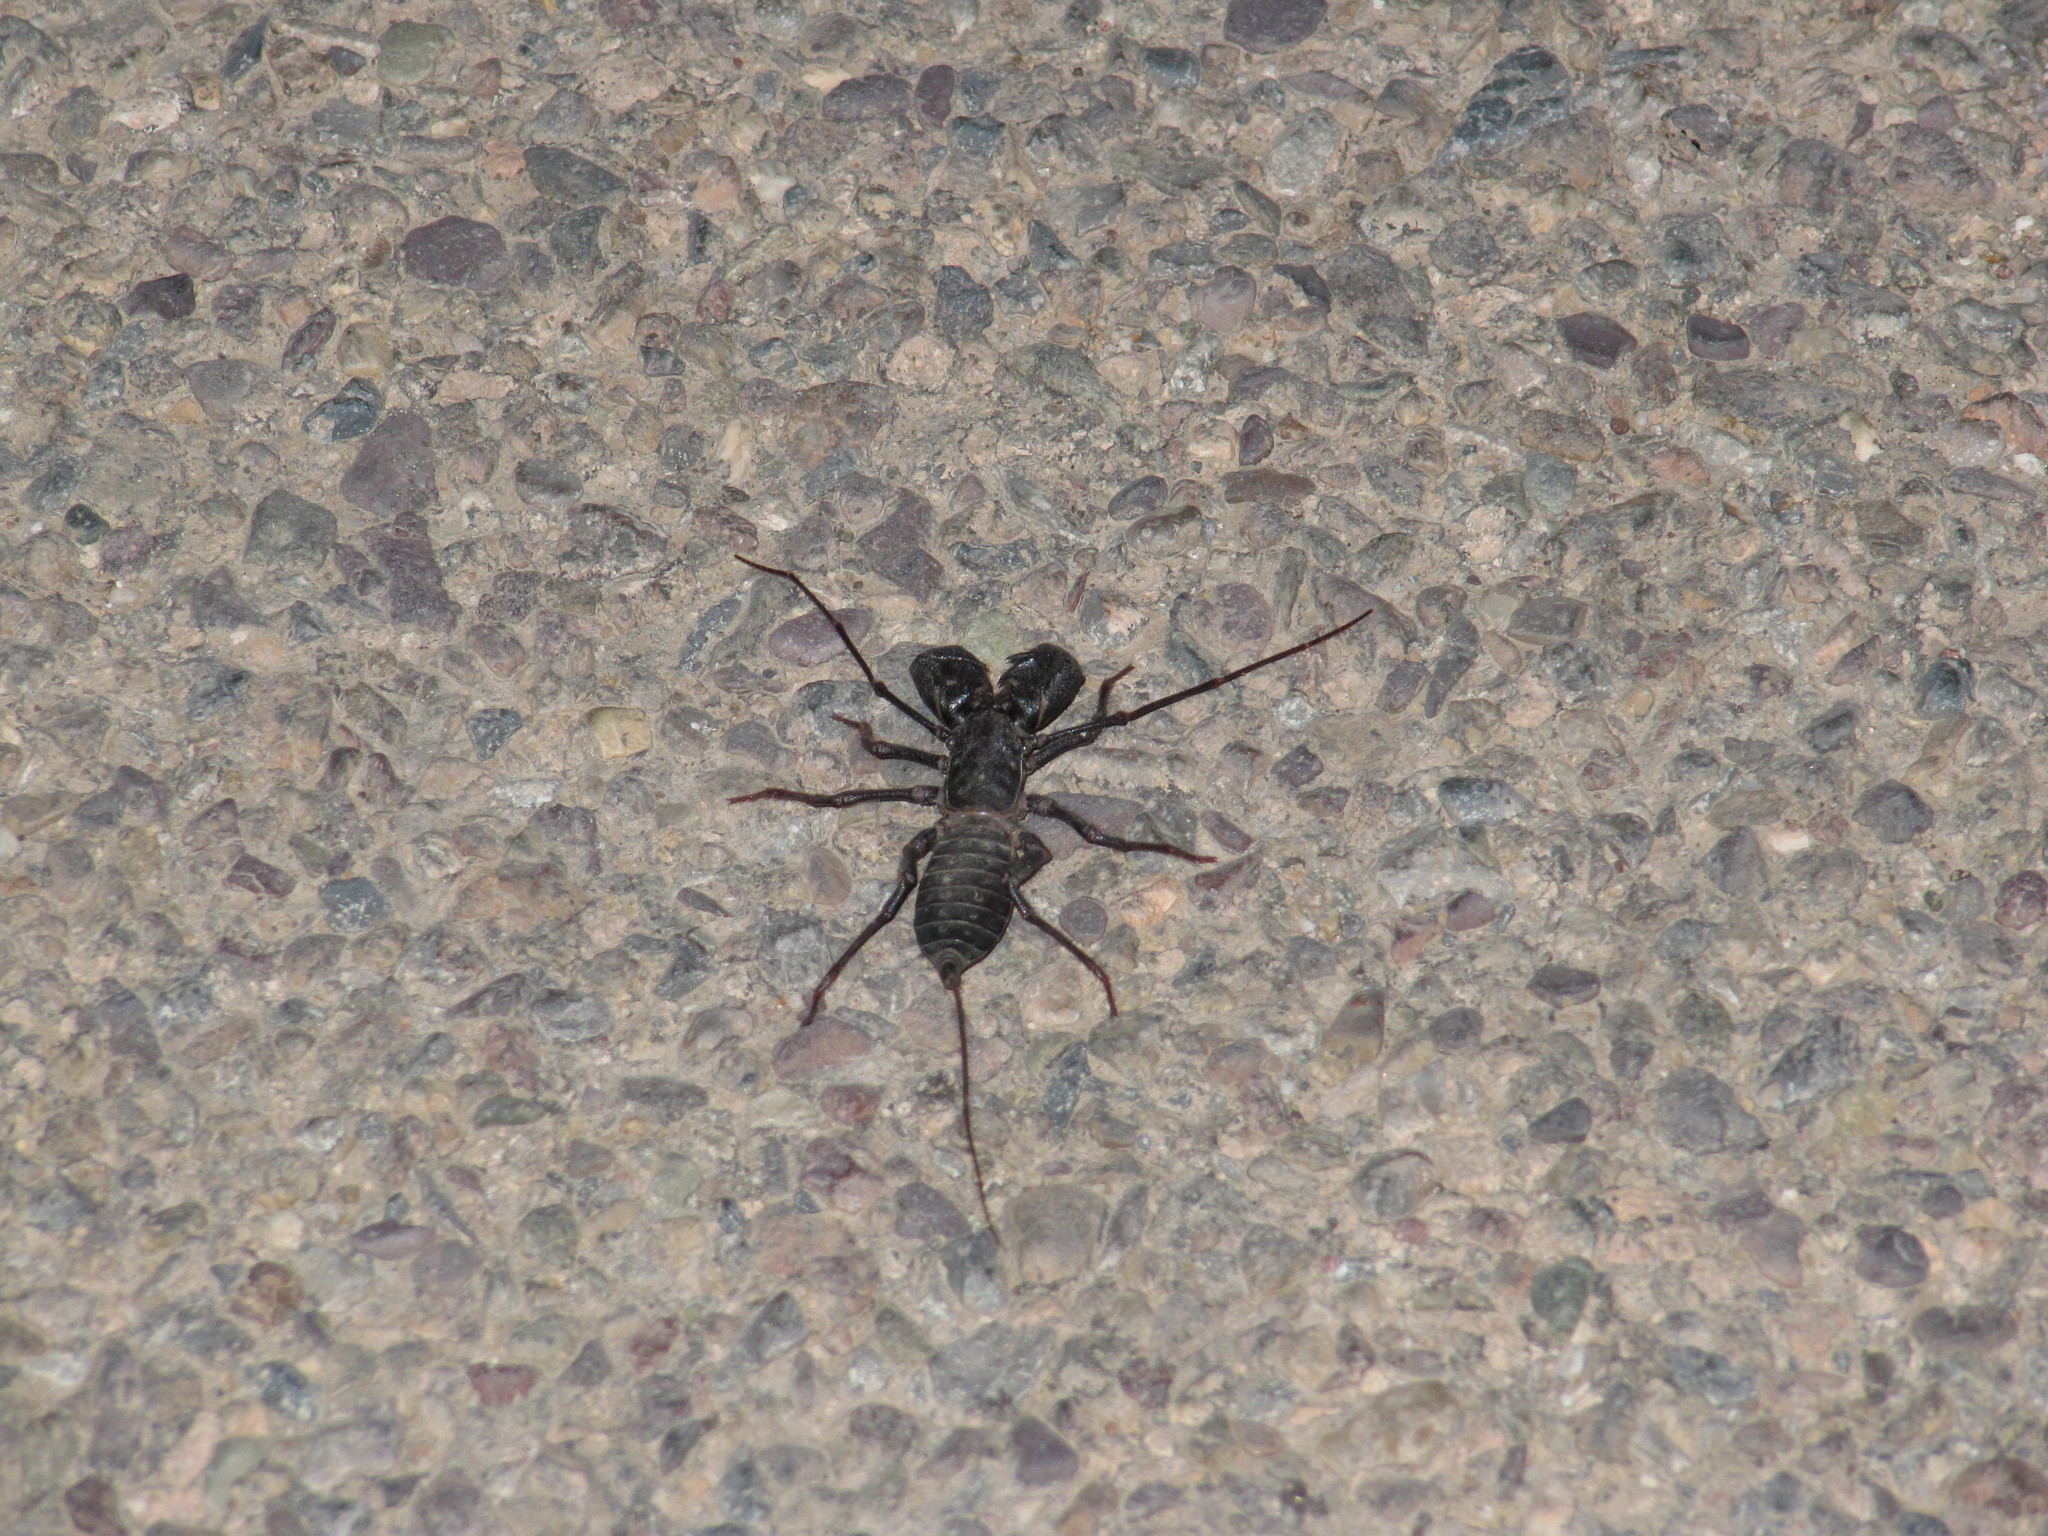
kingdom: Animalia
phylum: Arthropoda
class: Arachnida
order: Uropygi
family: Thelyphonidae
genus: Mastigoproctus
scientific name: Mastigoproctus tohono
